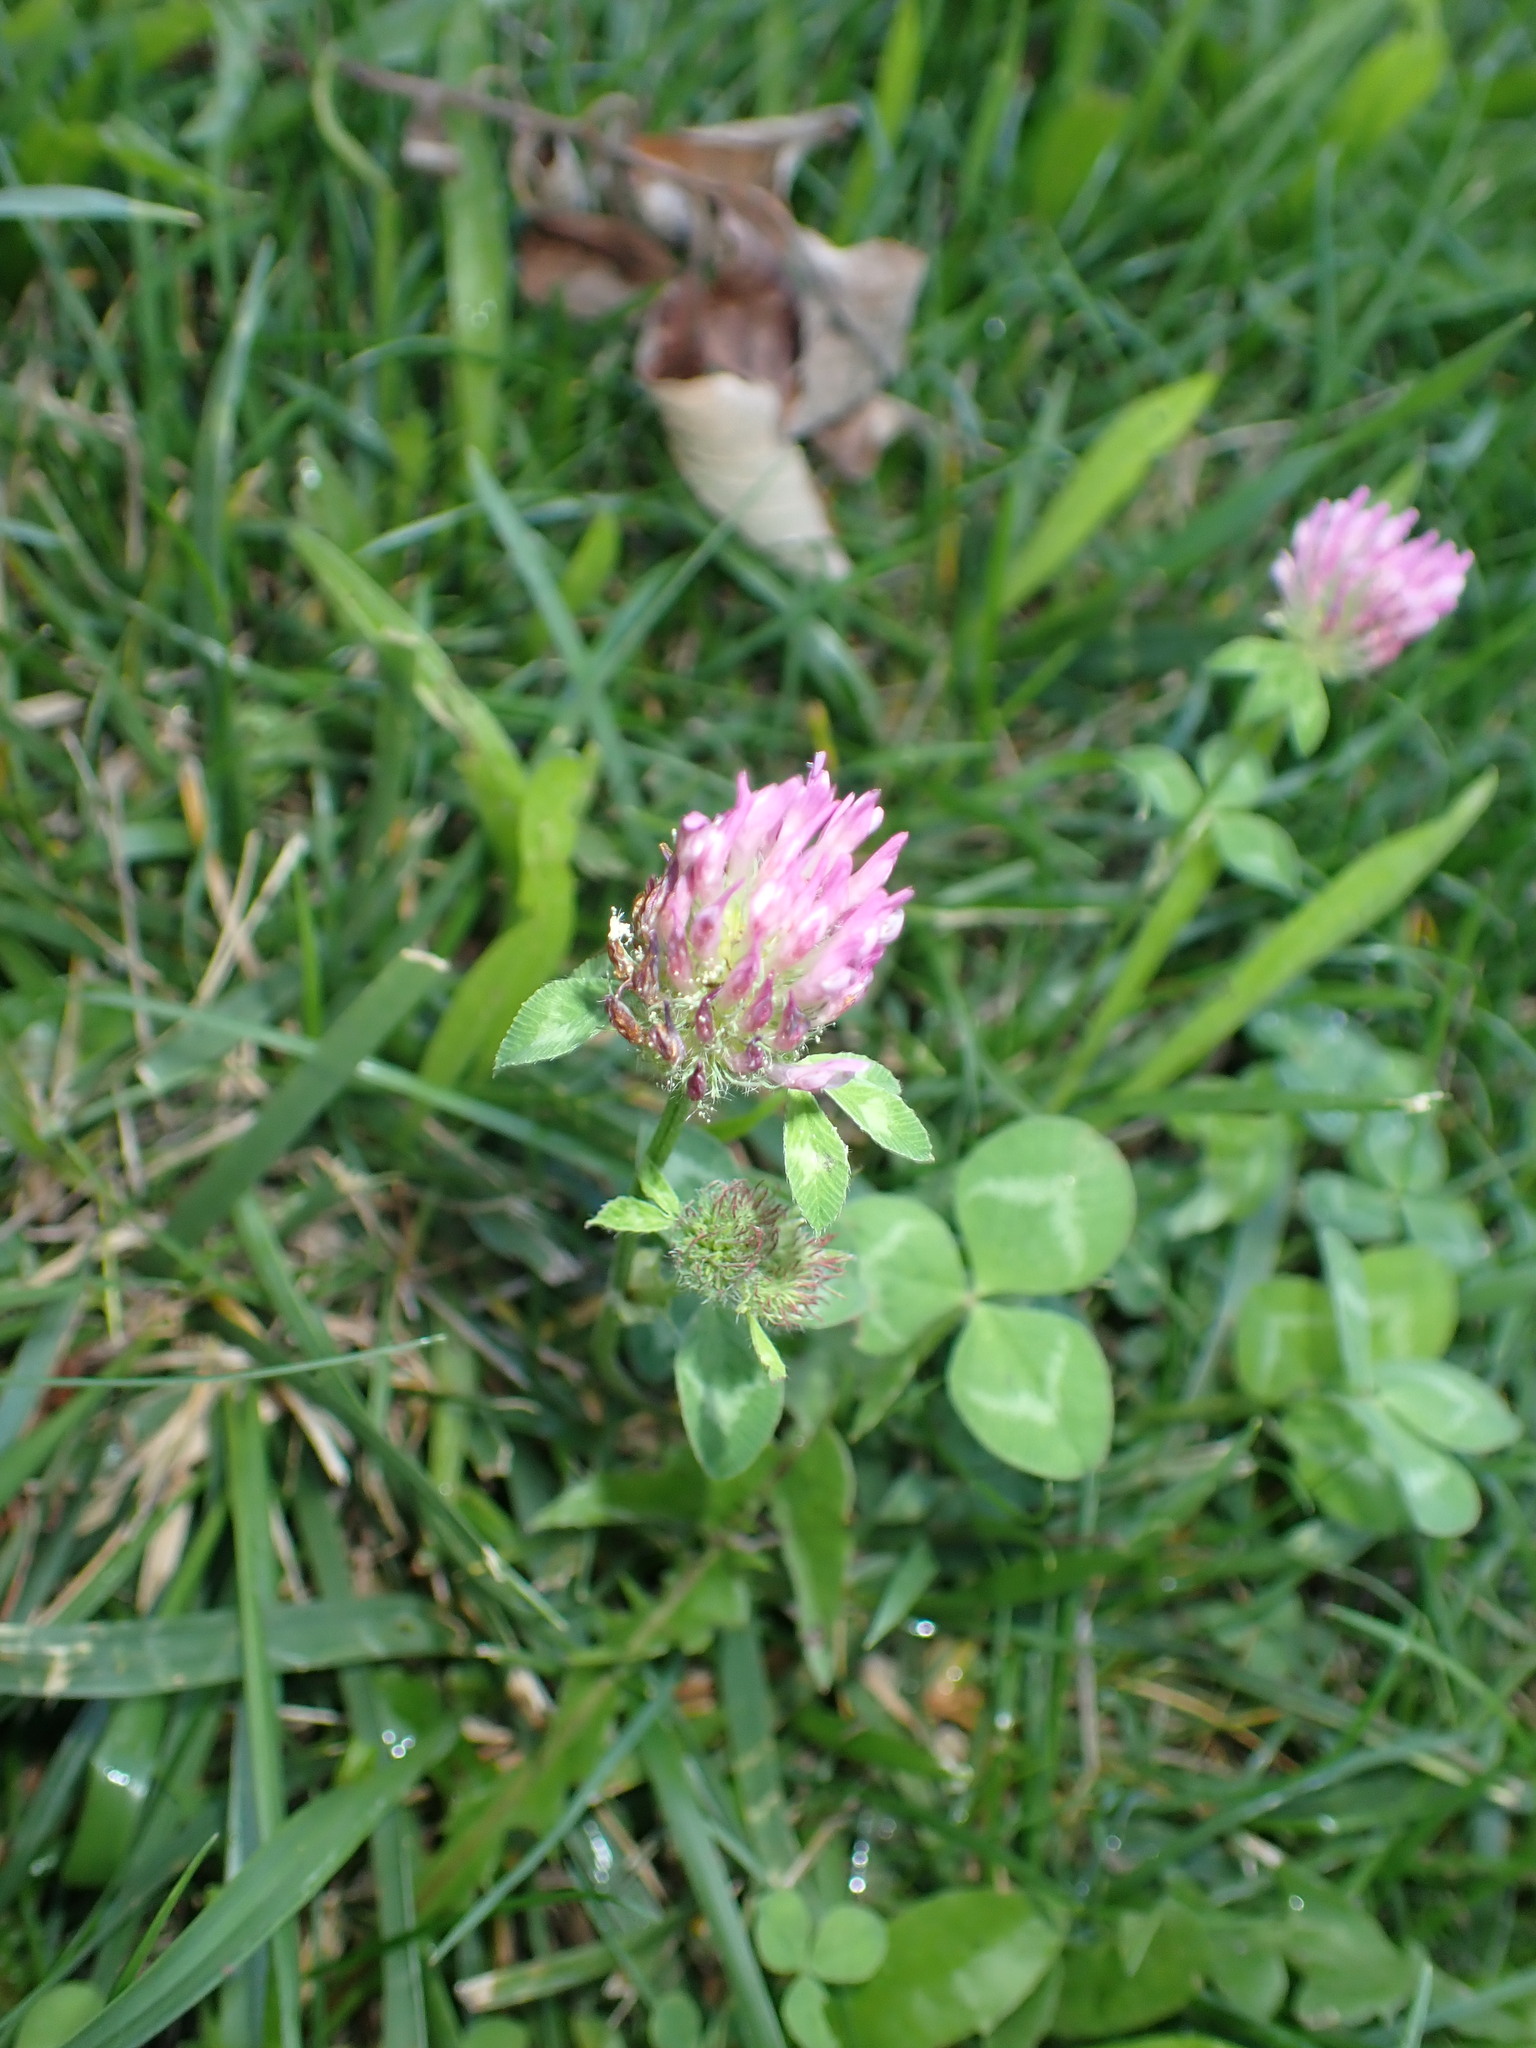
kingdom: Plantae
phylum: Tracheophyta
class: Magnoliopsida
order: Fabales
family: Fabaceae
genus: Trifolium
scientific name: Trifolium pratense
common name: Red clover
